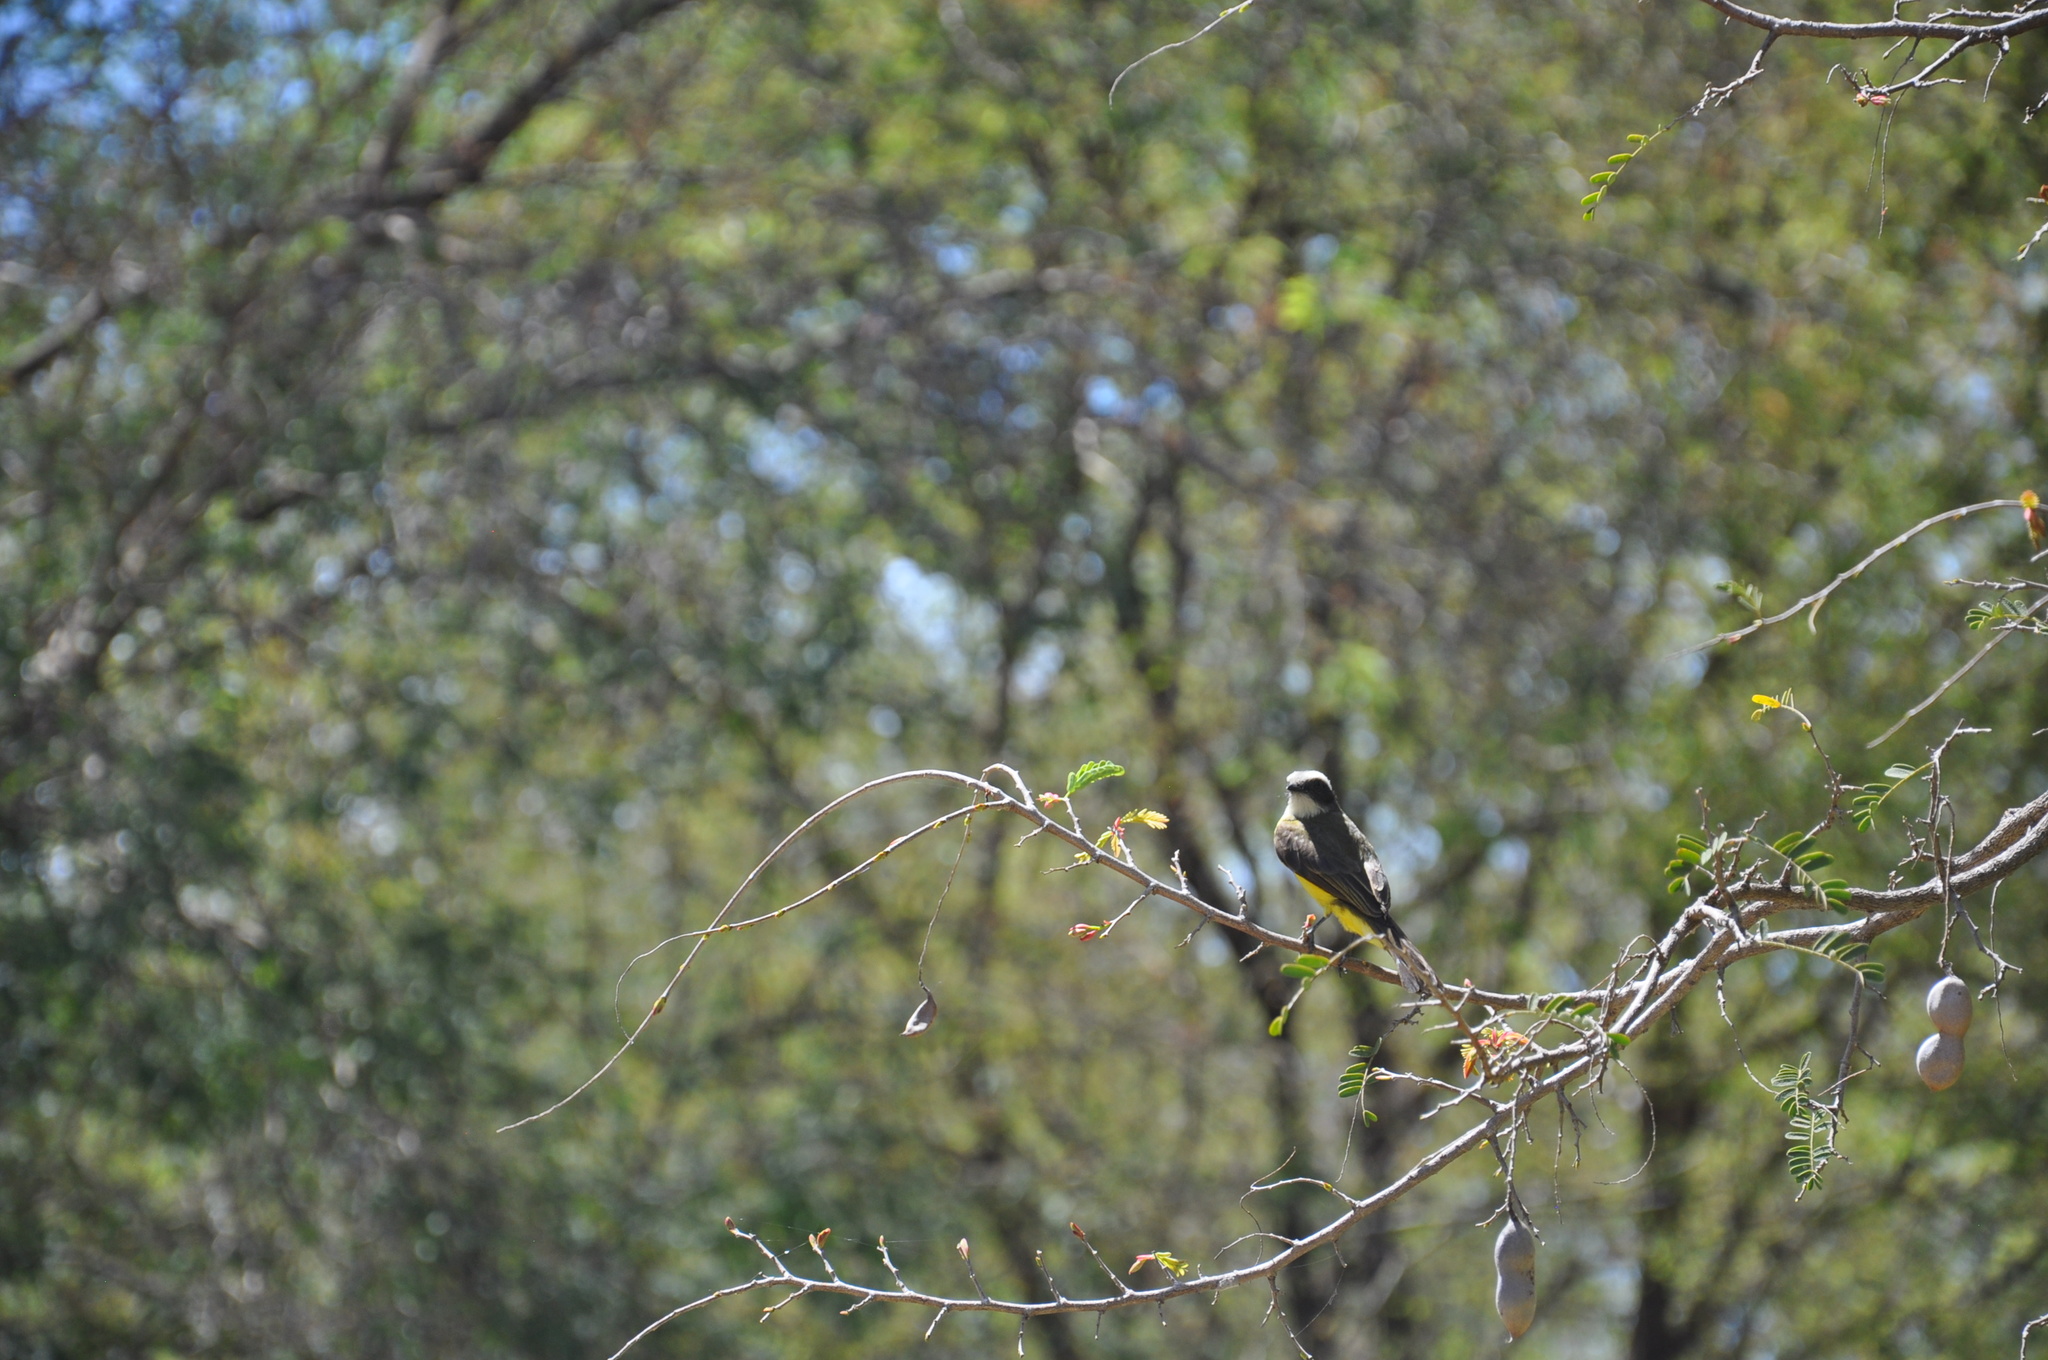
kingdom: Animalia
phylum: Chordata
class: Aves
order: Passeriformes
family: Tyrannidae
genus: Myiozetetes
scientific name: Myiozetetes similis
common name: Social flycatcher
